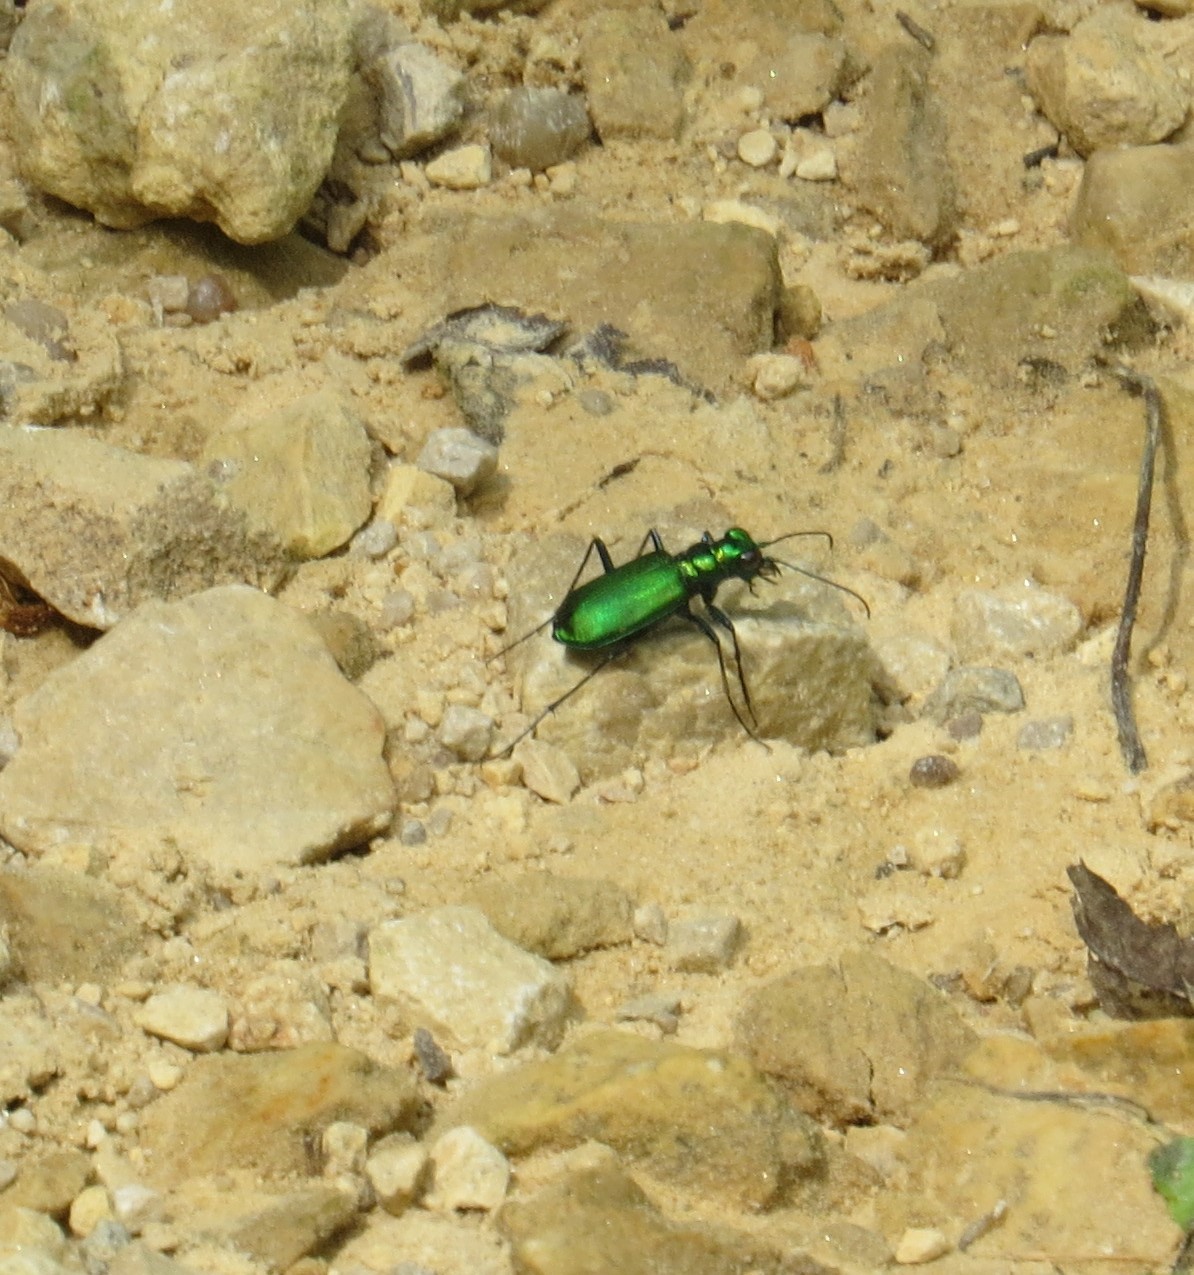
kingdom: Animalia
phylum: Arthropoda
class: Insecta
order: Coleoptera
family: Carabidae
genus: Cicindela
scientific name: Cicindela sexguttata
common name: Six-spotted tiger beetle
